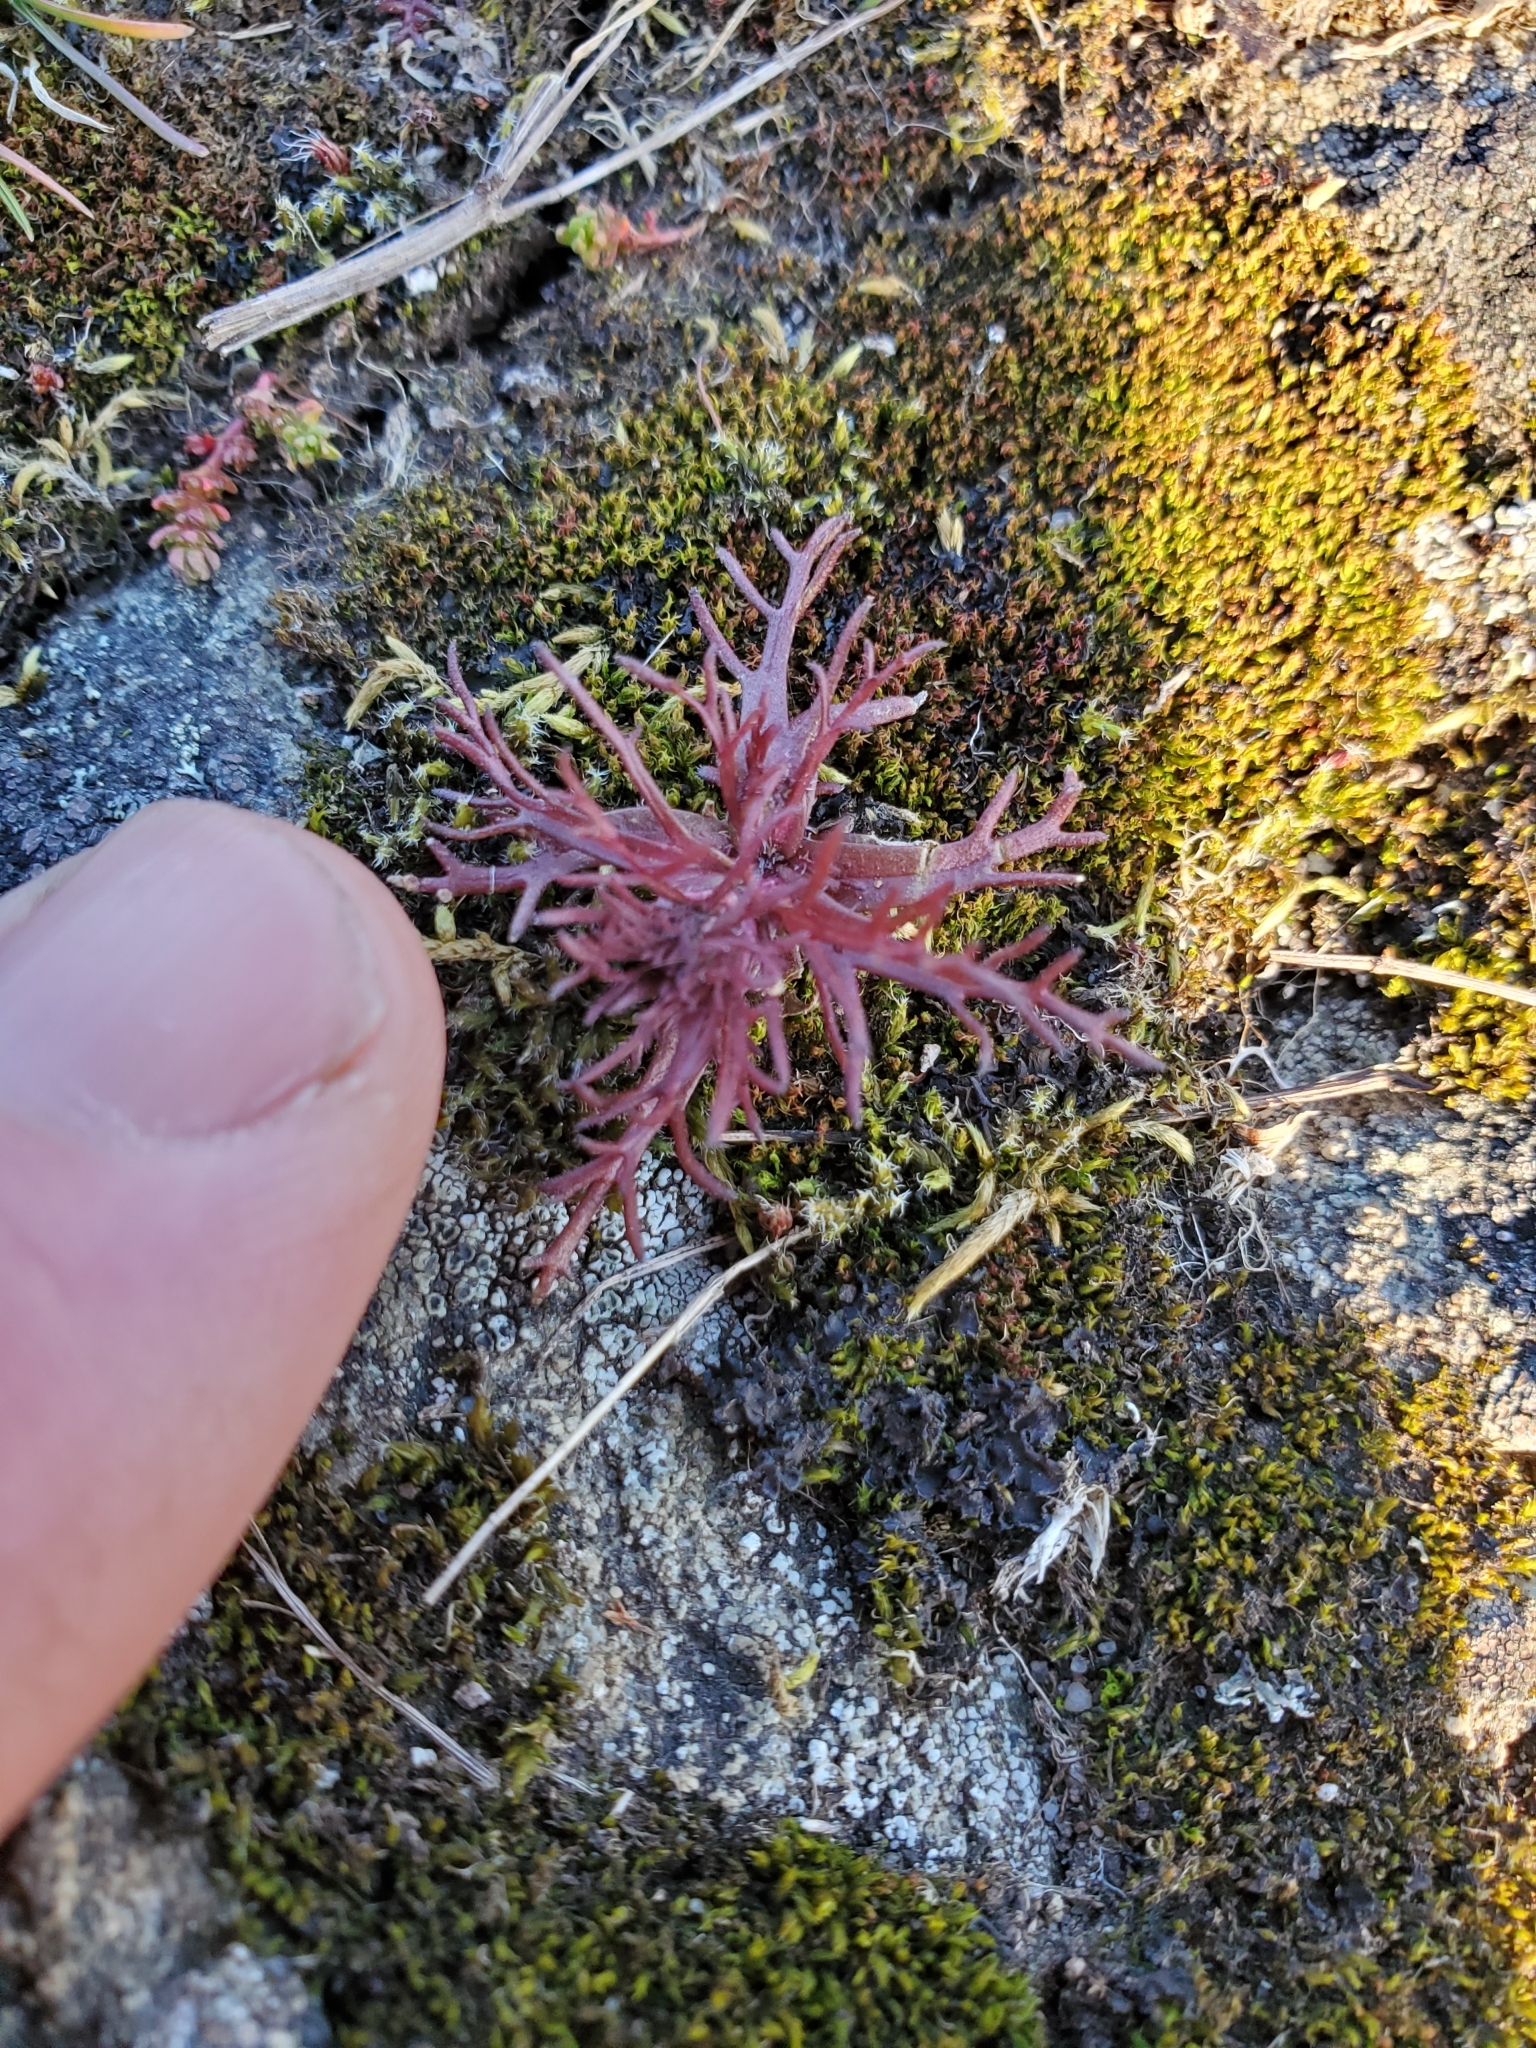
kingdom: Plantae
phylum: Tracheophyta
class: Magnoliopsida
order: Lamiales
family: Orobanchaceae
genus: Triphysaria
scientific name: Triphysaria pusilla
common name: Dwarf false owl-clover
